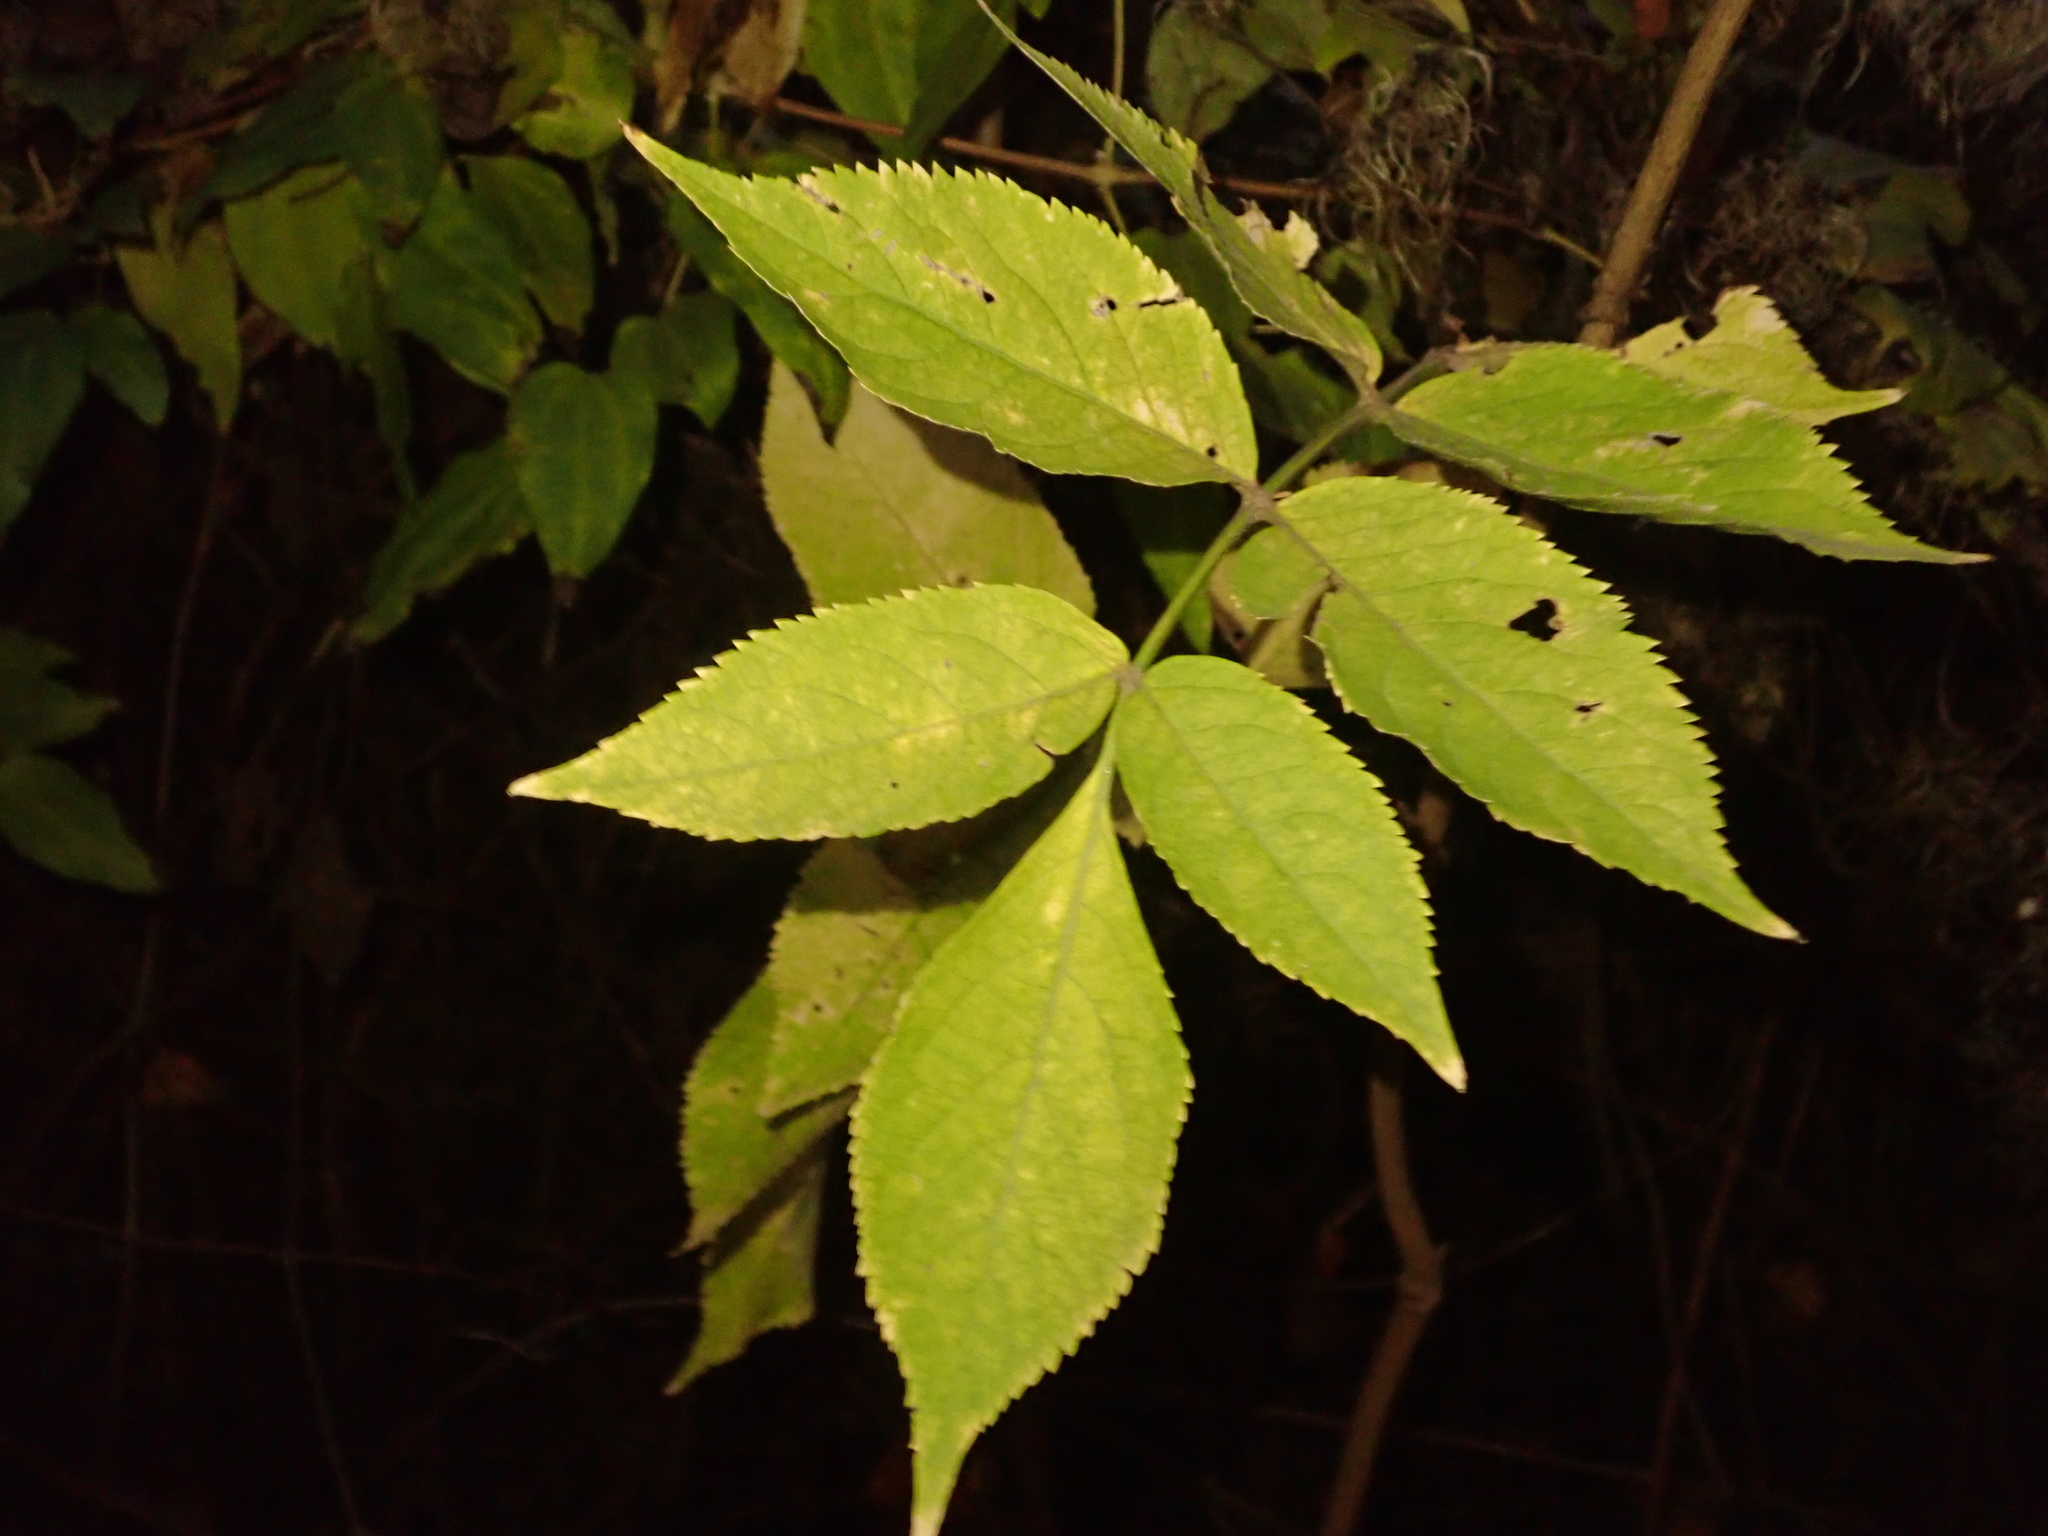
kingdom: Plantae
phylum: Tracheophyta
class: Magnoliopsida
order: Dipsacales
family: Viburnaceae
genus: Sambucus
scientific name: Sambucus nigra
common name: Elder
